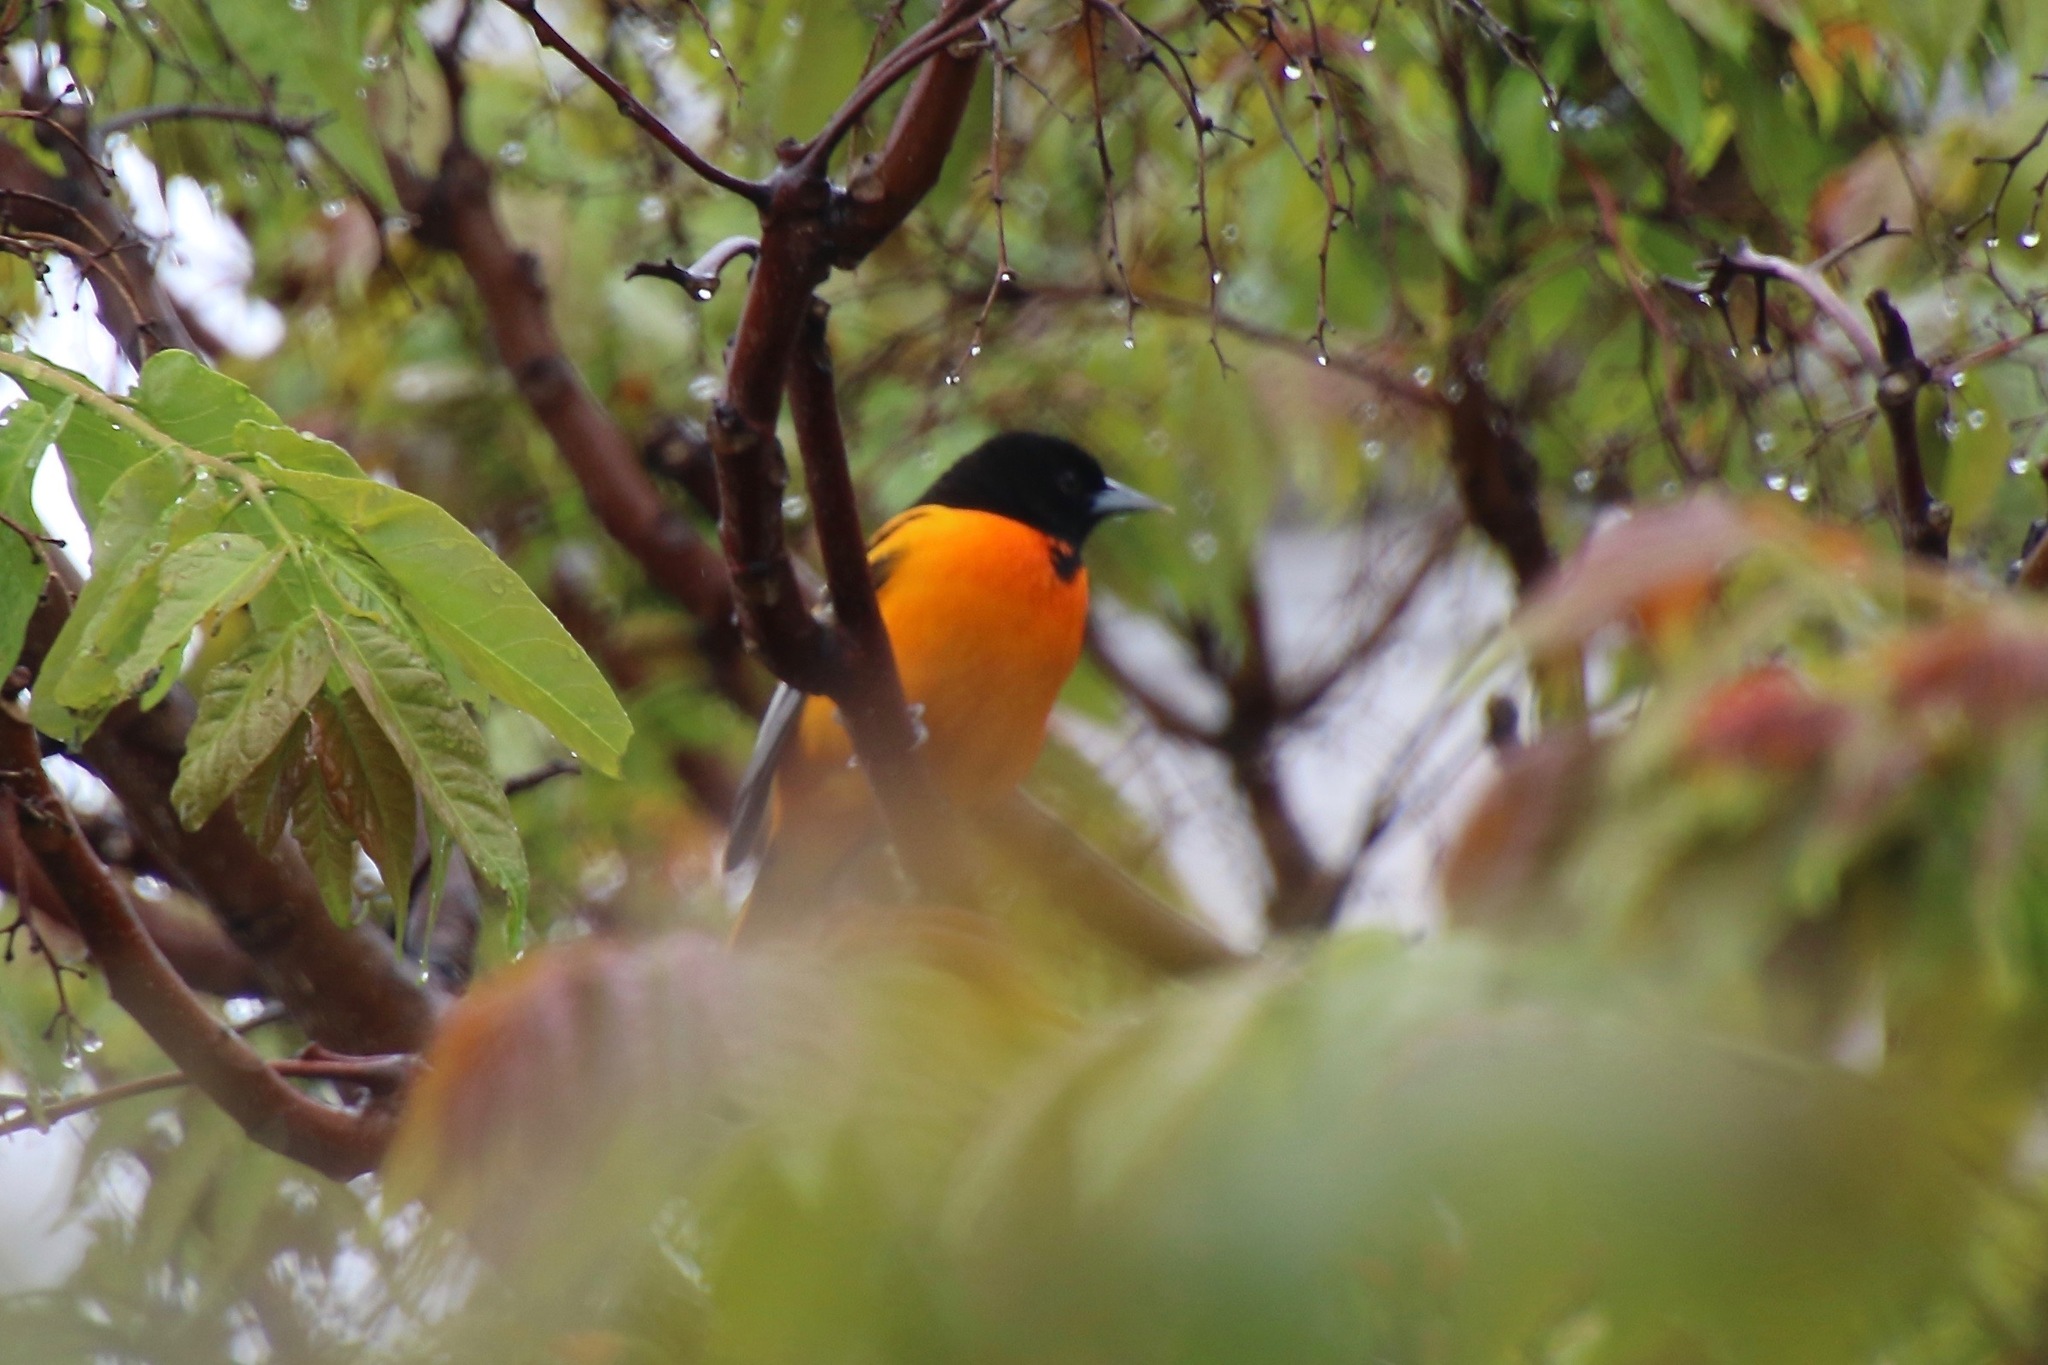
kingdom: Animalia
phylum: Chordata
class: Aves
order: Passeriformes
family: Icteridae
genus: Icterus
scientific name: Icterus galbula
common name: Baltimore oriole
